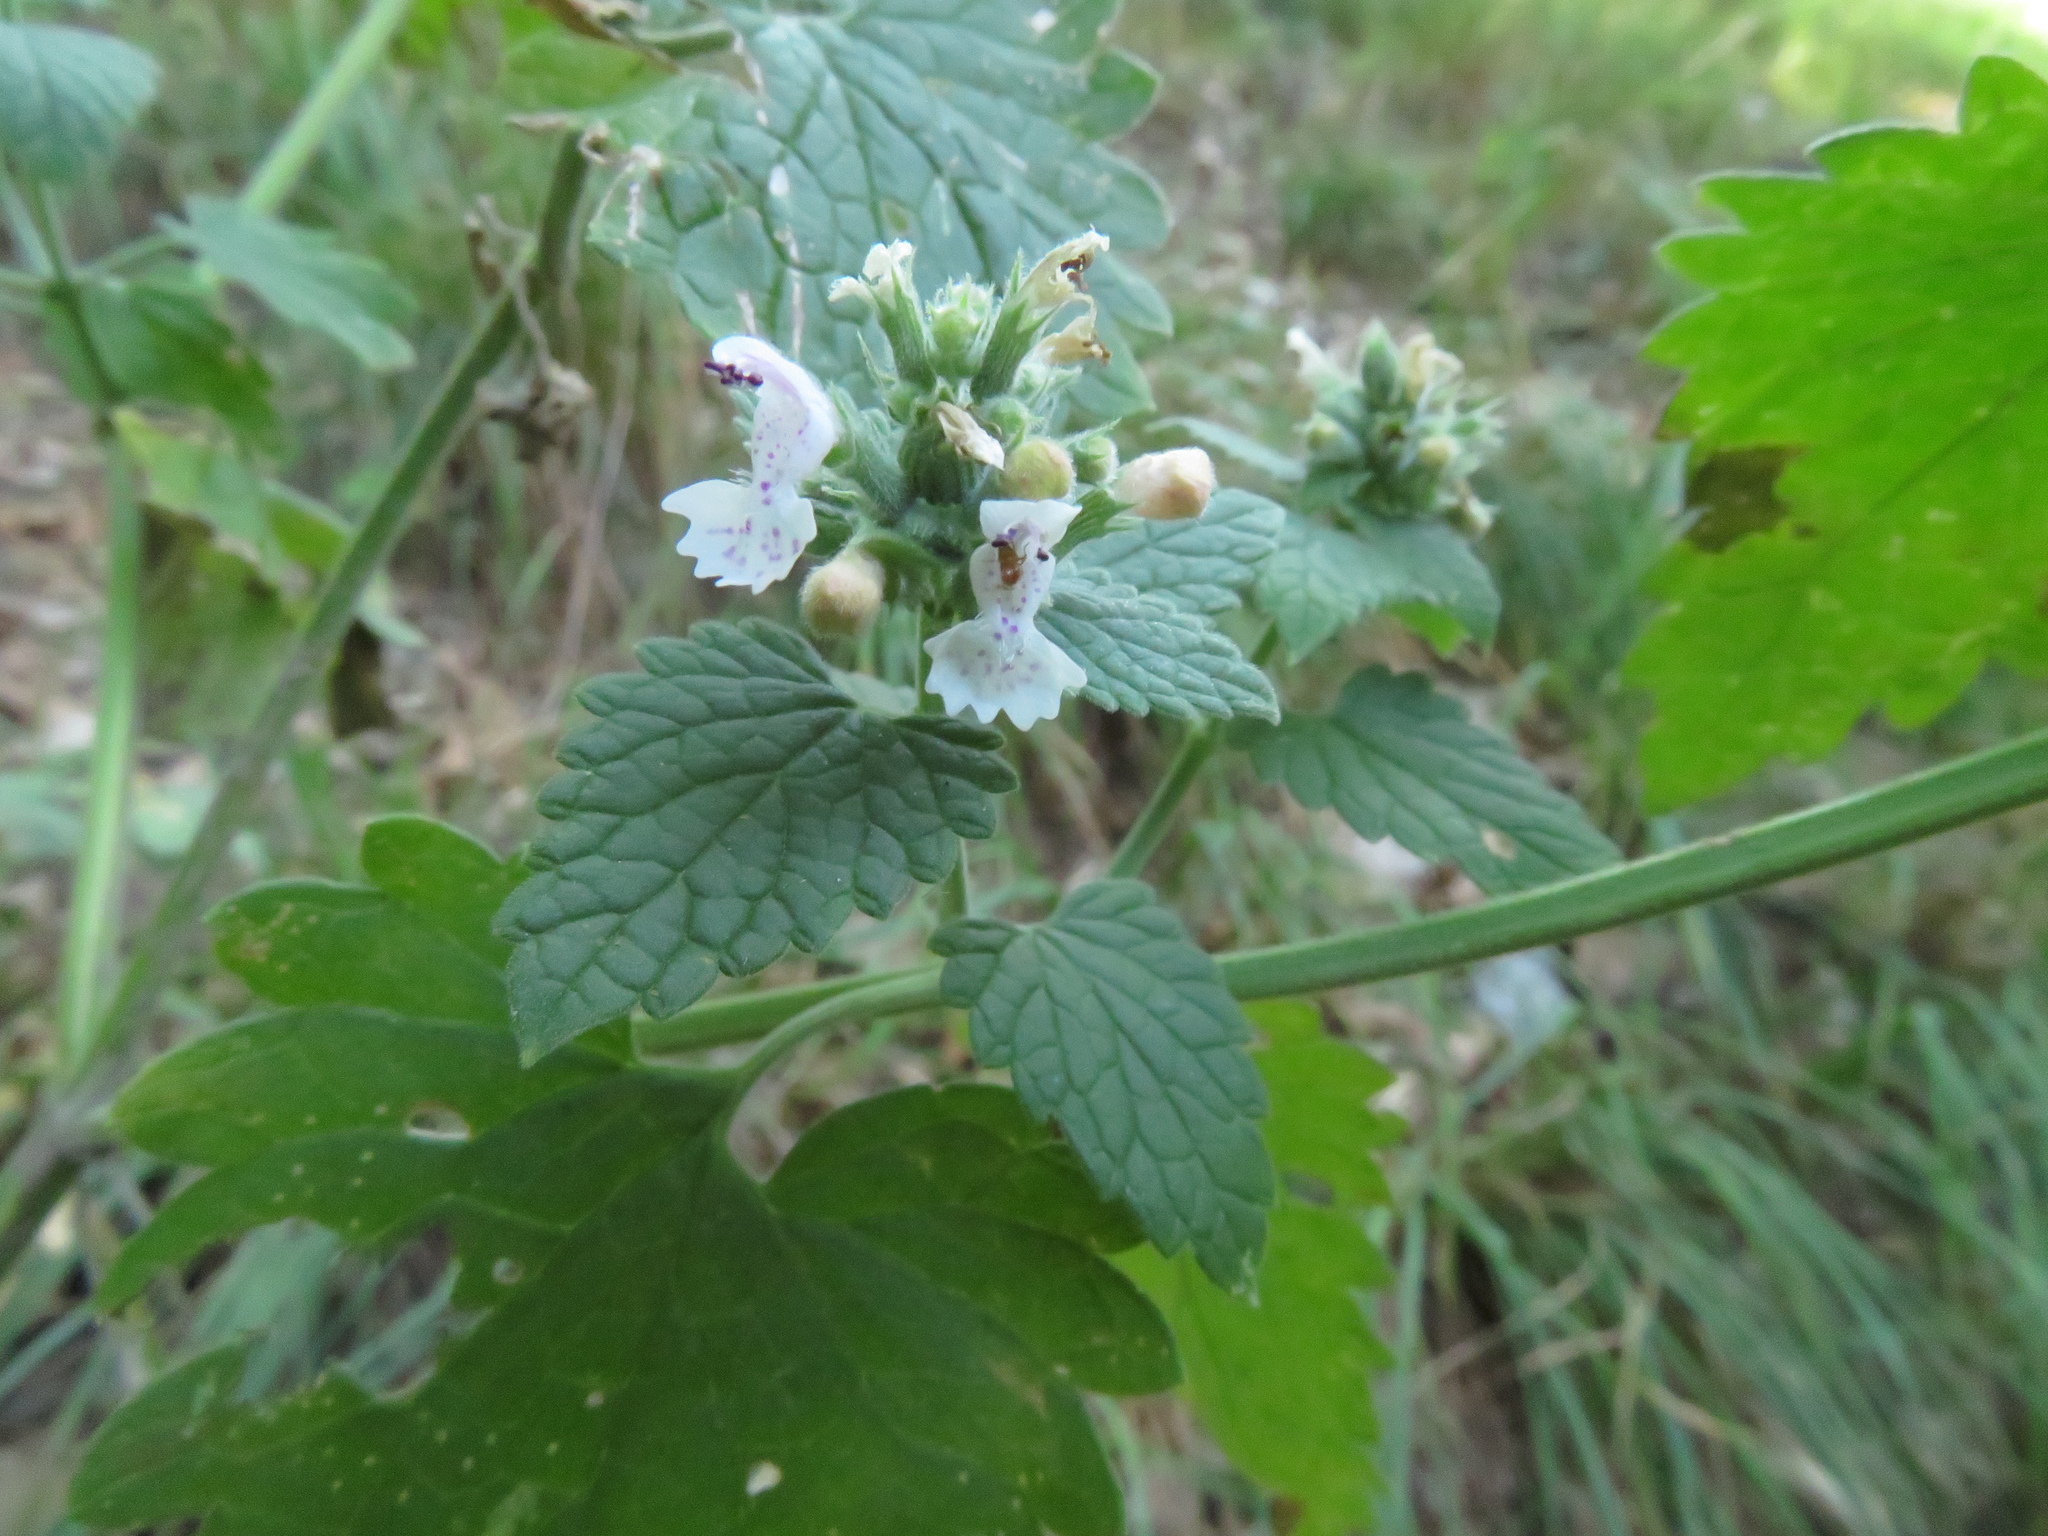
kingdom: Plantae
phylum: Tracheophyta
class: Magnoliopsida
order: Lamiales
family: Lamiaceae
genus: Nepeta
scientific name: Nepeta cataria
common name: Catnip
